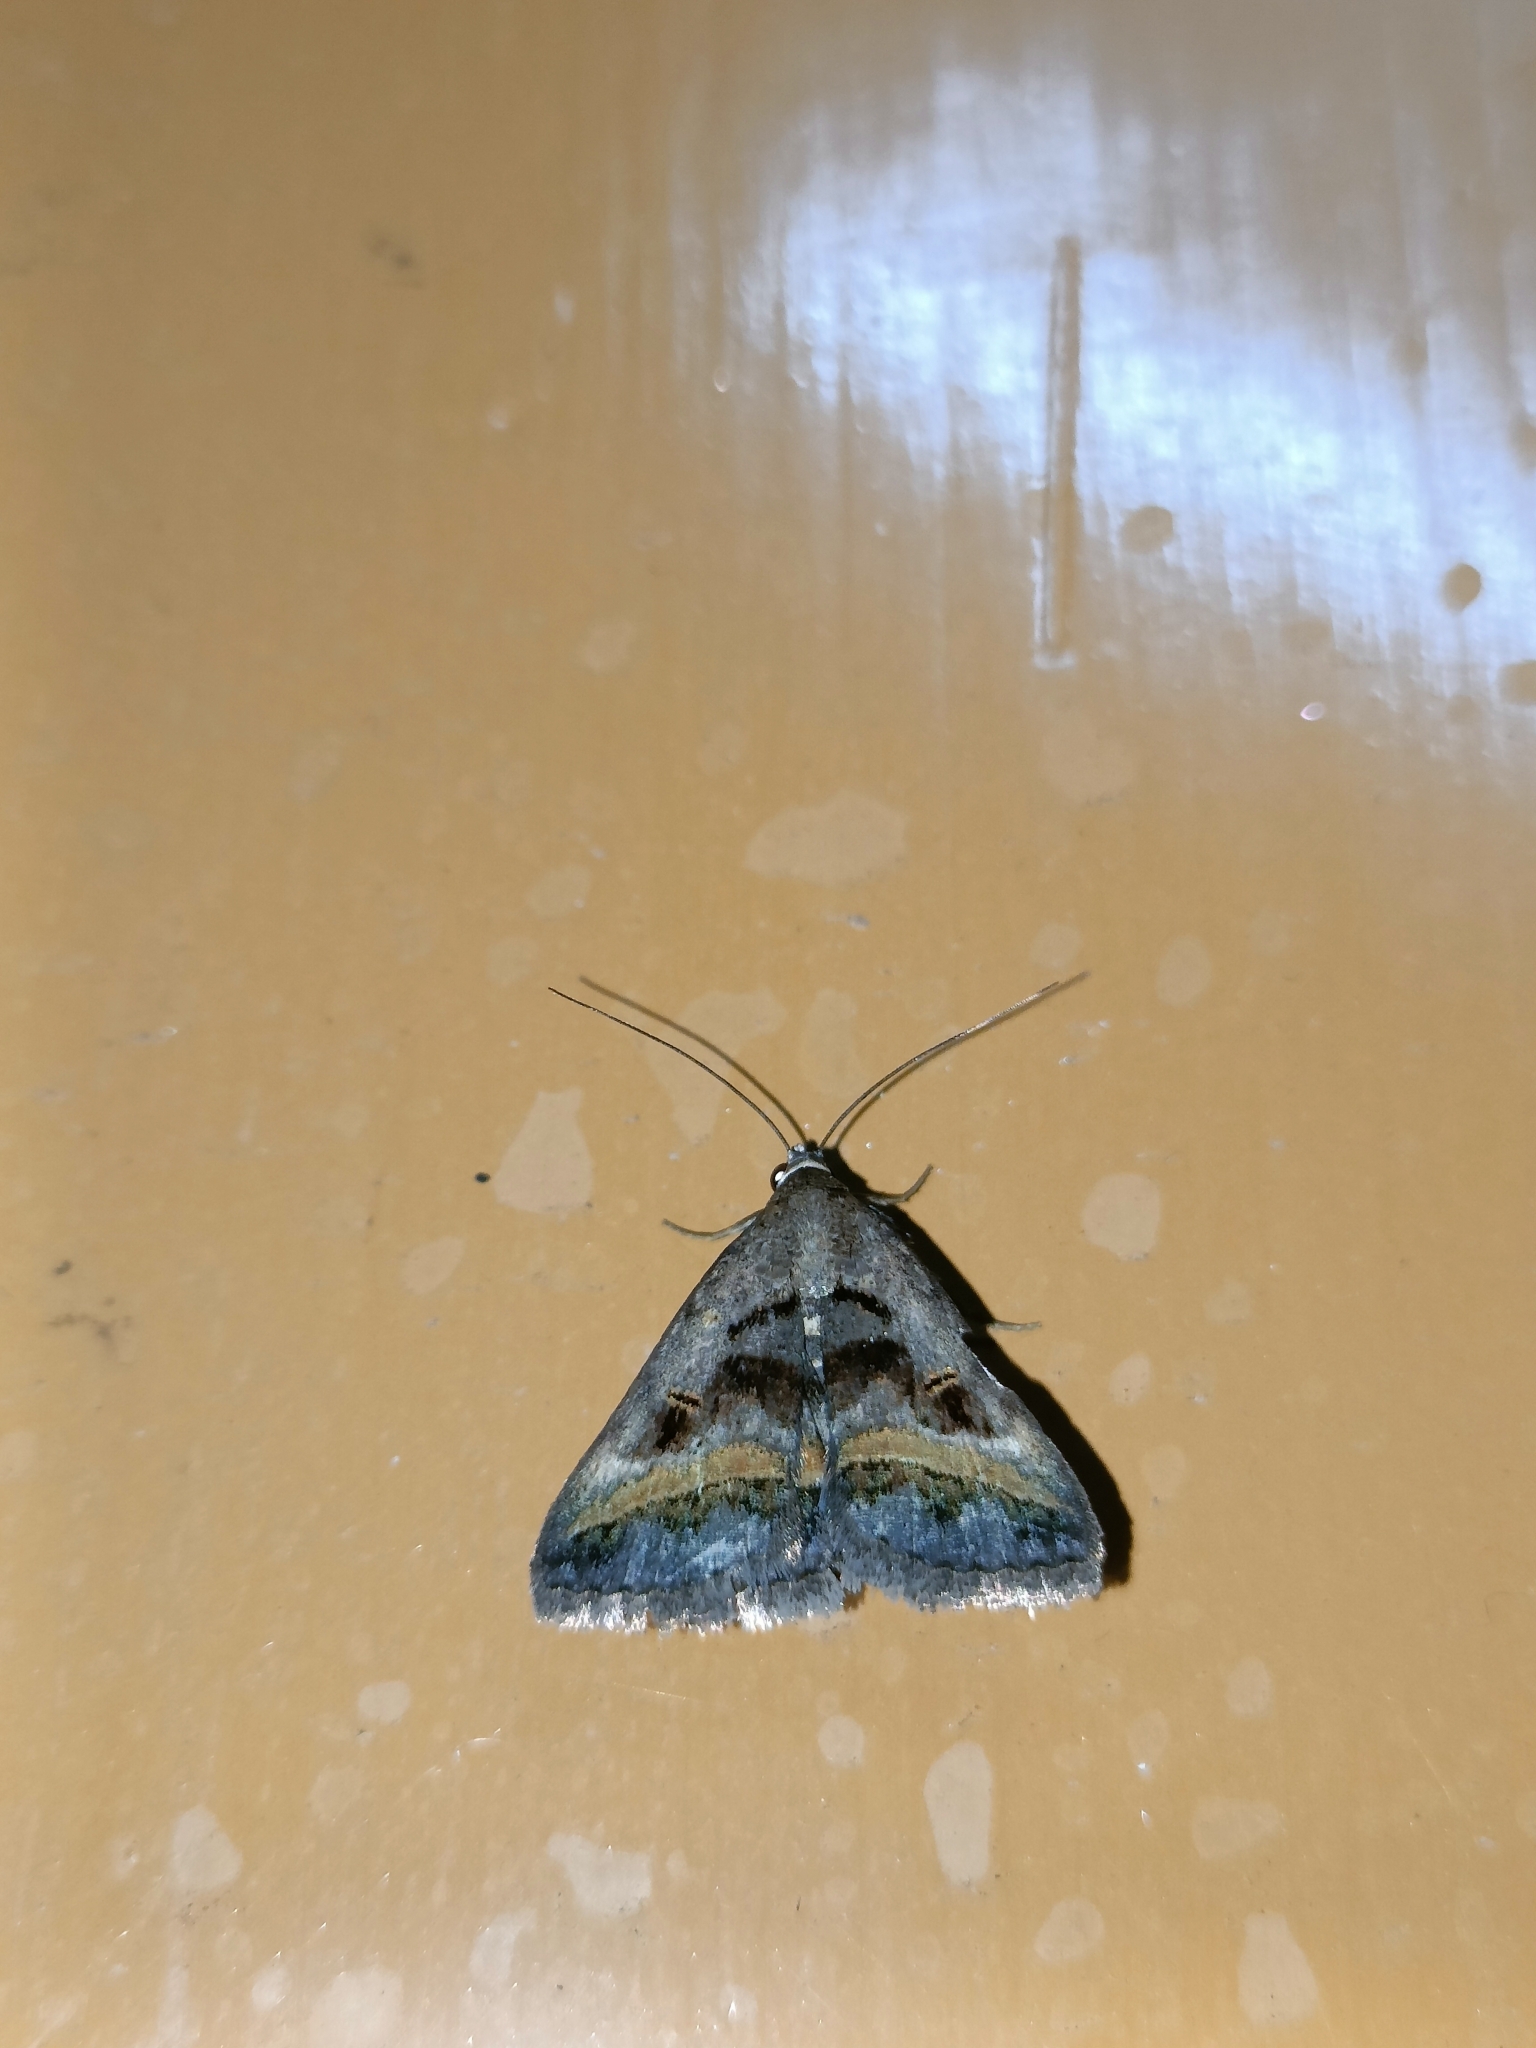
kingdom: Animalia
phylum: Arthropoda
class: Insecta
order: Lepidoptera
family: Erebidae
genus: Acantholipes
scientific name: Acantholipes trajecta
